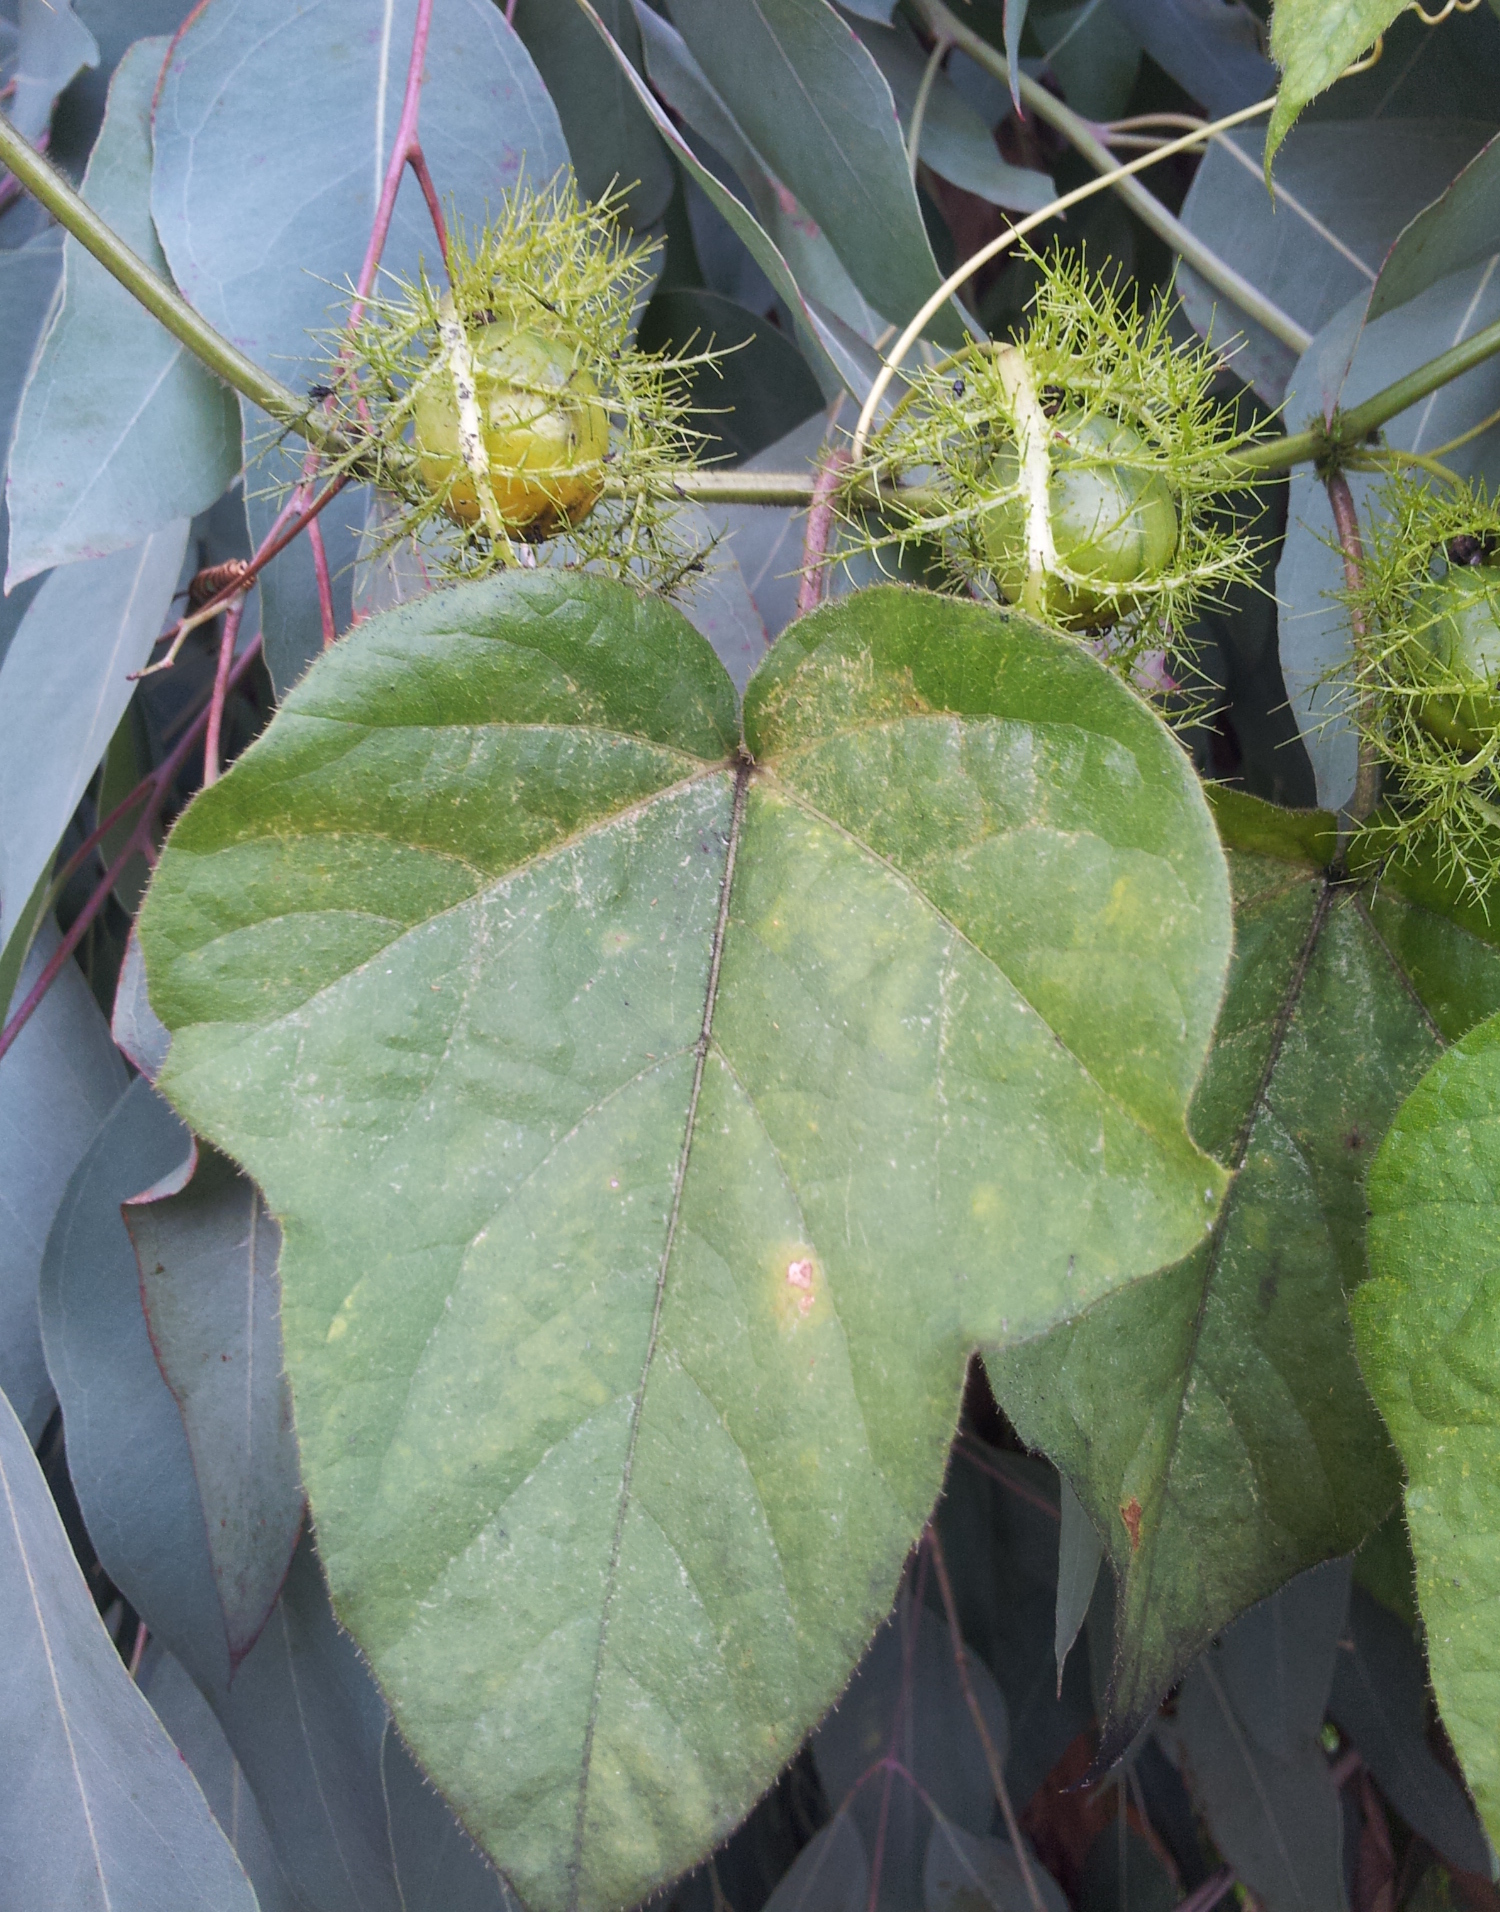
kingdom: Plantae
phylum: Tracheophyta
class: Magnoliopsida
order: Malpighiales
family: Passifloraceae
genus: Passiflora
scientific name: Passiflora foetida
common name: Fetid passionflower
